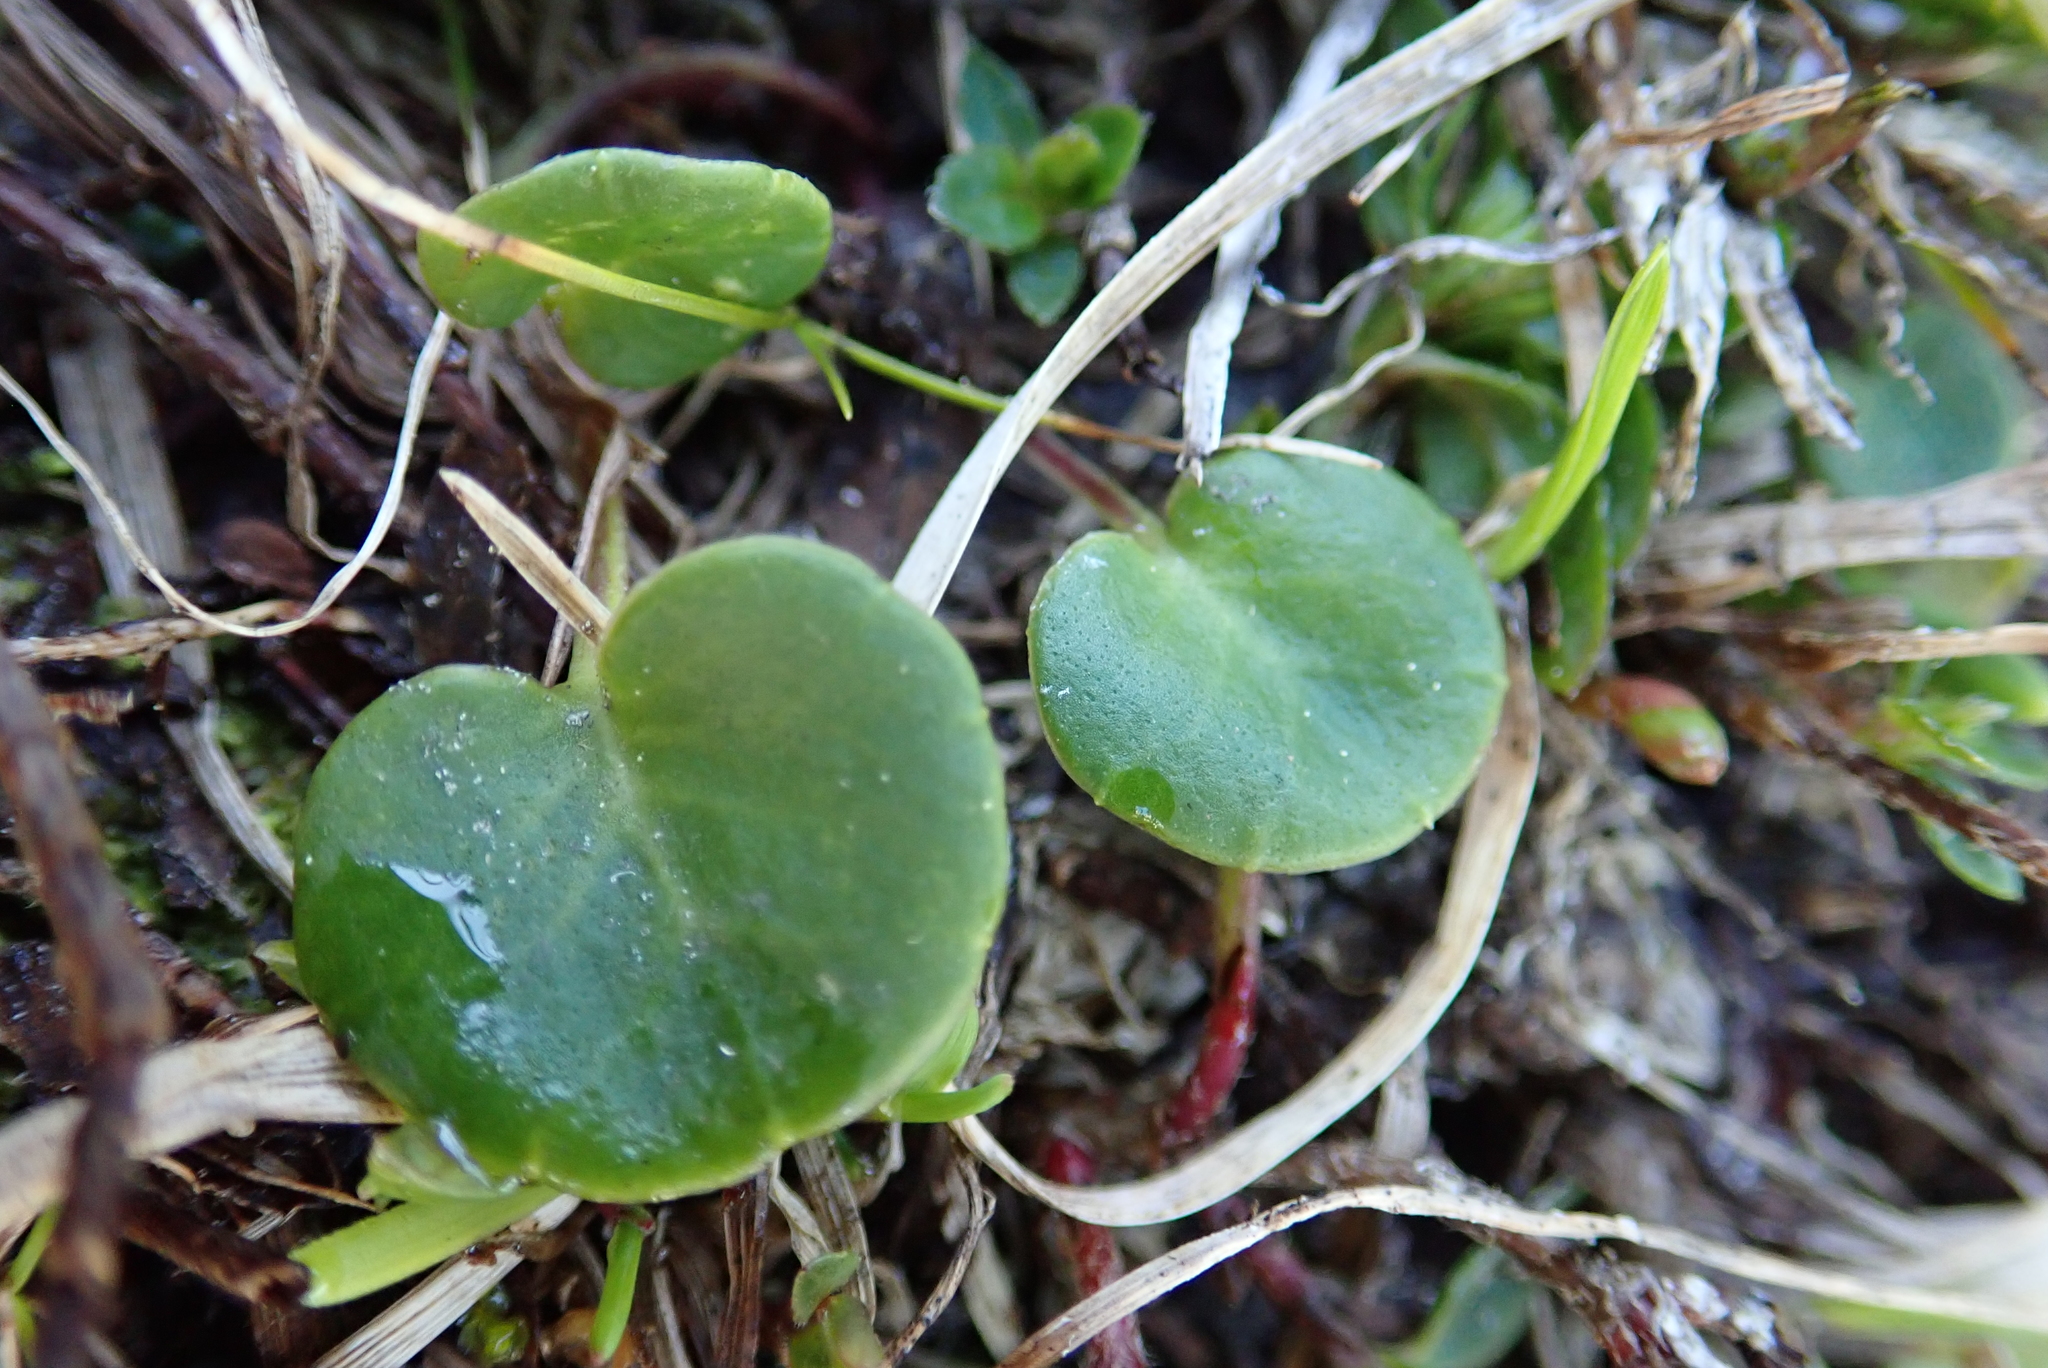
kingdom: Plantae
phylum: Tracheophyta
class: Magnoliopsida
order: Ericales
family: Primulaceae
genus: Soldanella
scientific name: Soldanella alpina
